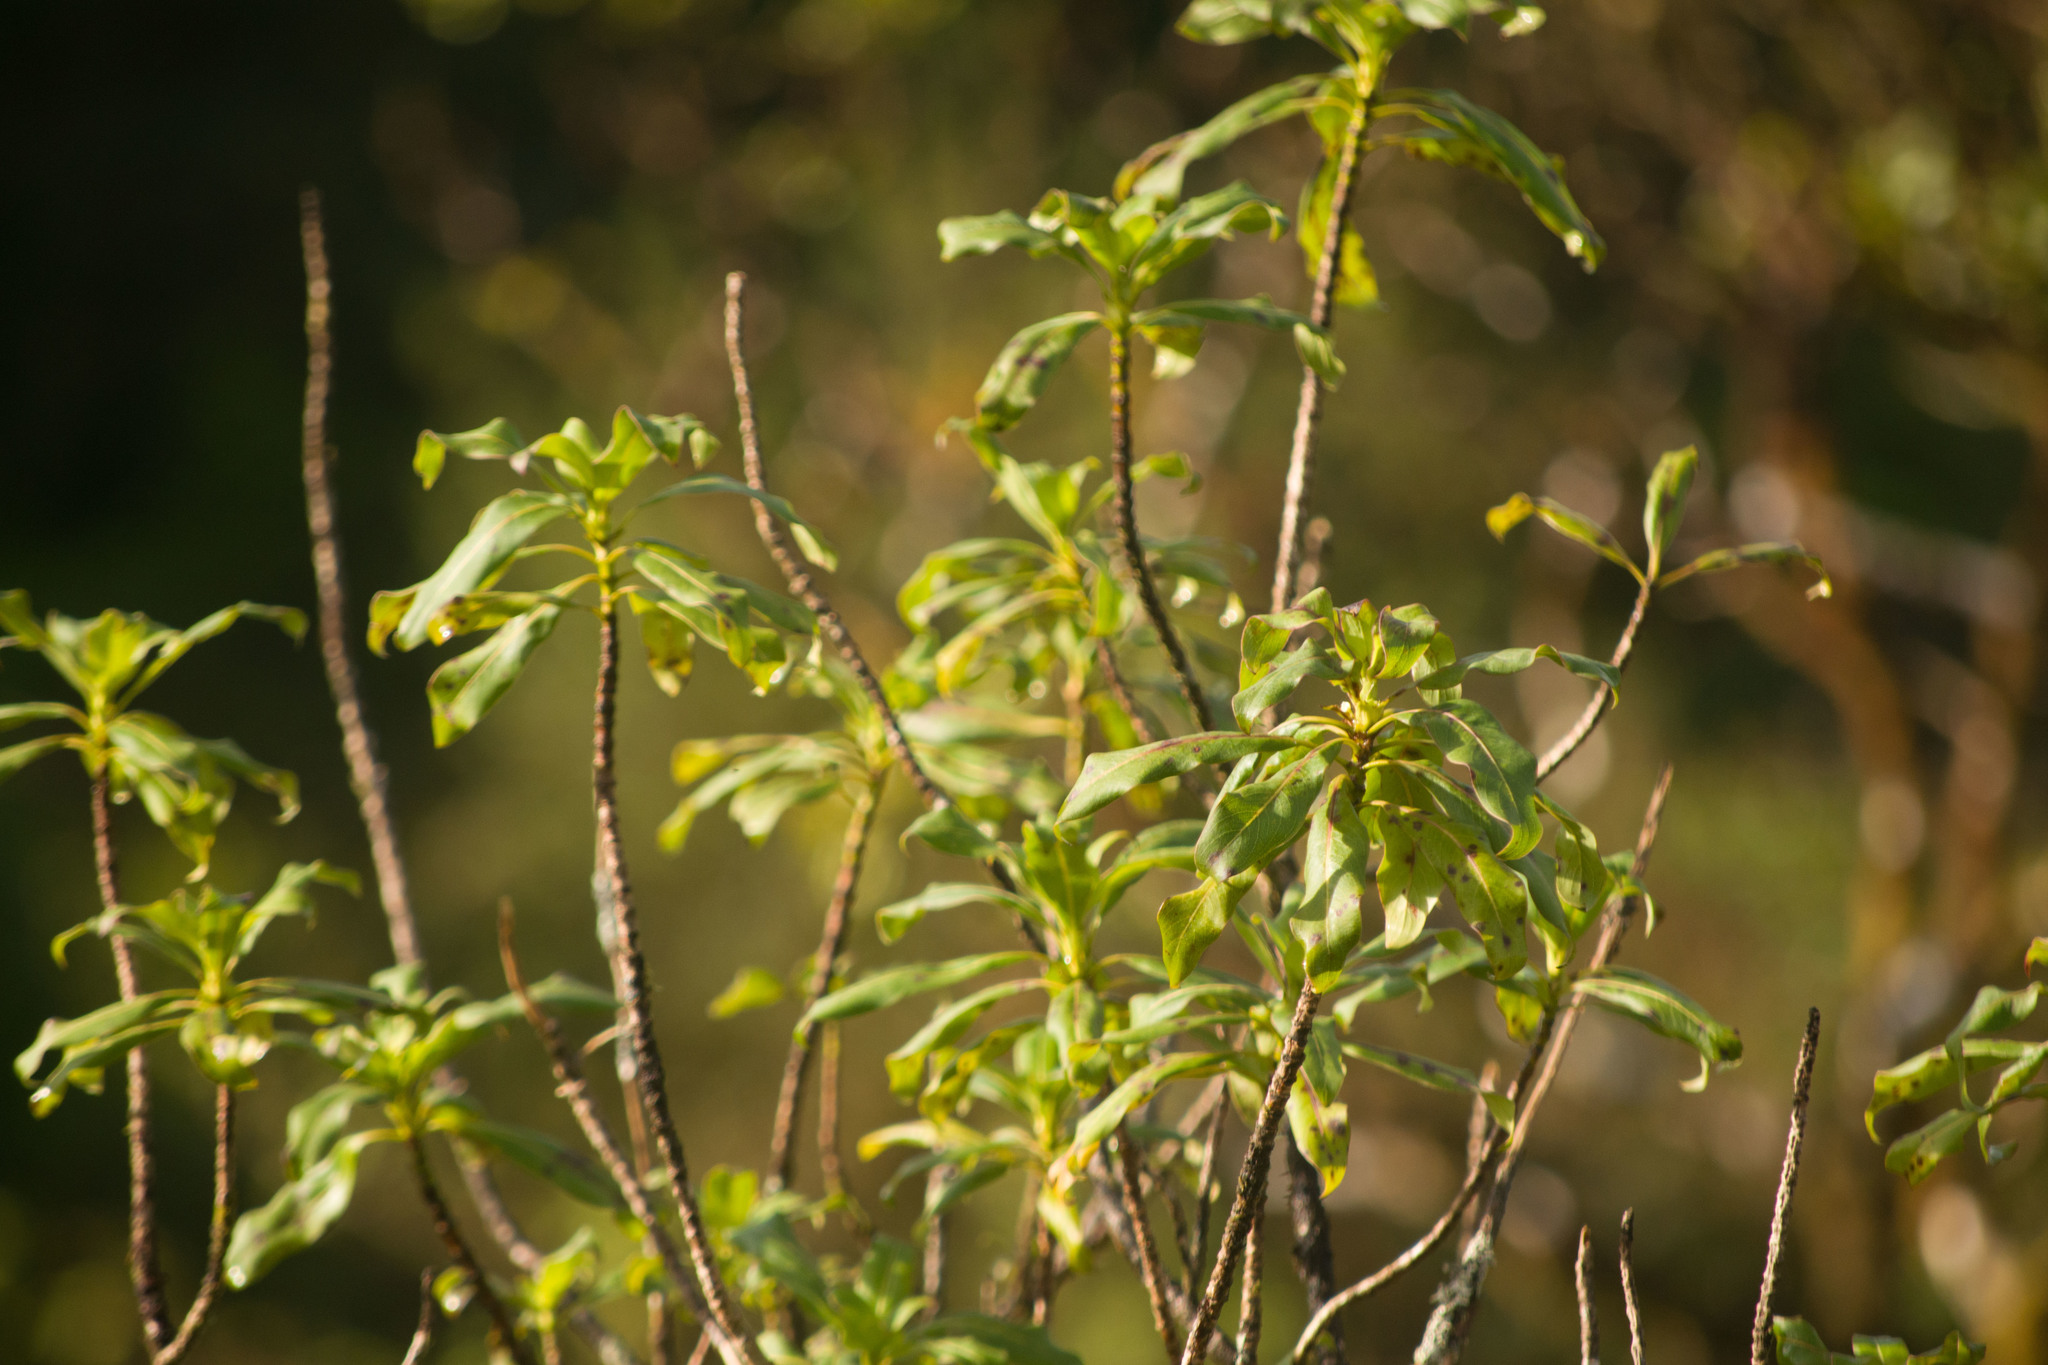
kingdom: Plantae
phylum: Tracheophyta
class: Magnoliopsida
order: Gentianales
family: Rubiaceae
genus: Coprosma
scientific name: Coprosma longifolia
